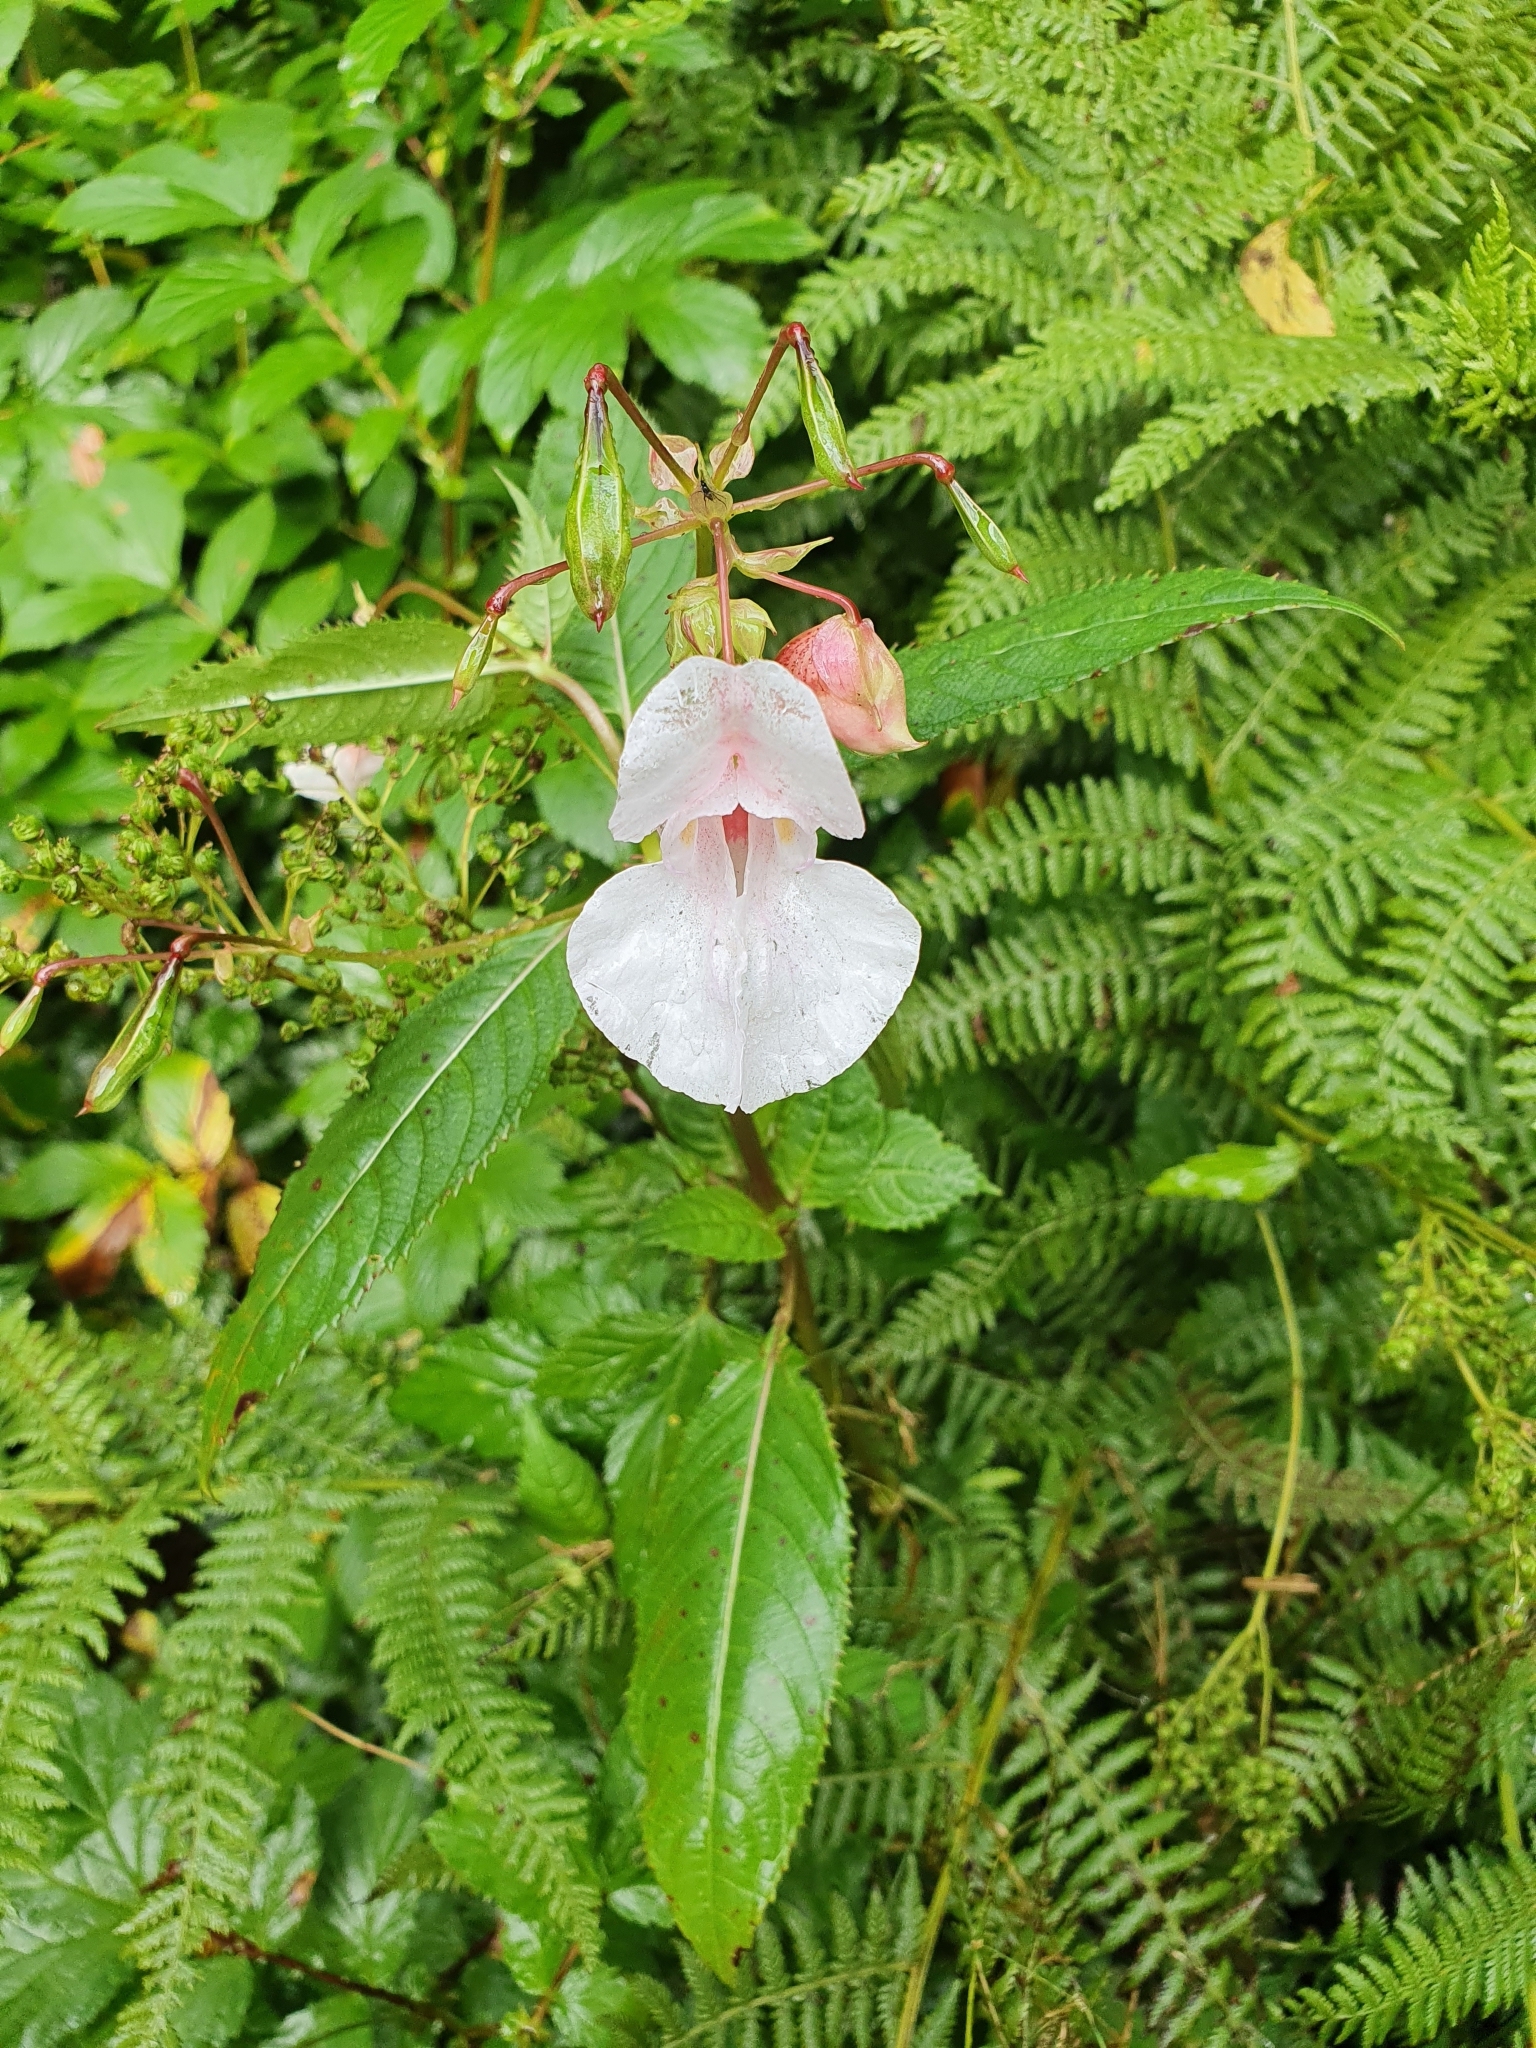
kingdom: Plantae
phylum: Tracheophyta
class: Magnoliopsida
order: Ericales
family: Balsaminaceae
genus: Impatiens
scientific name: Impatiens glandulifera
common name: Himalayan balsam
